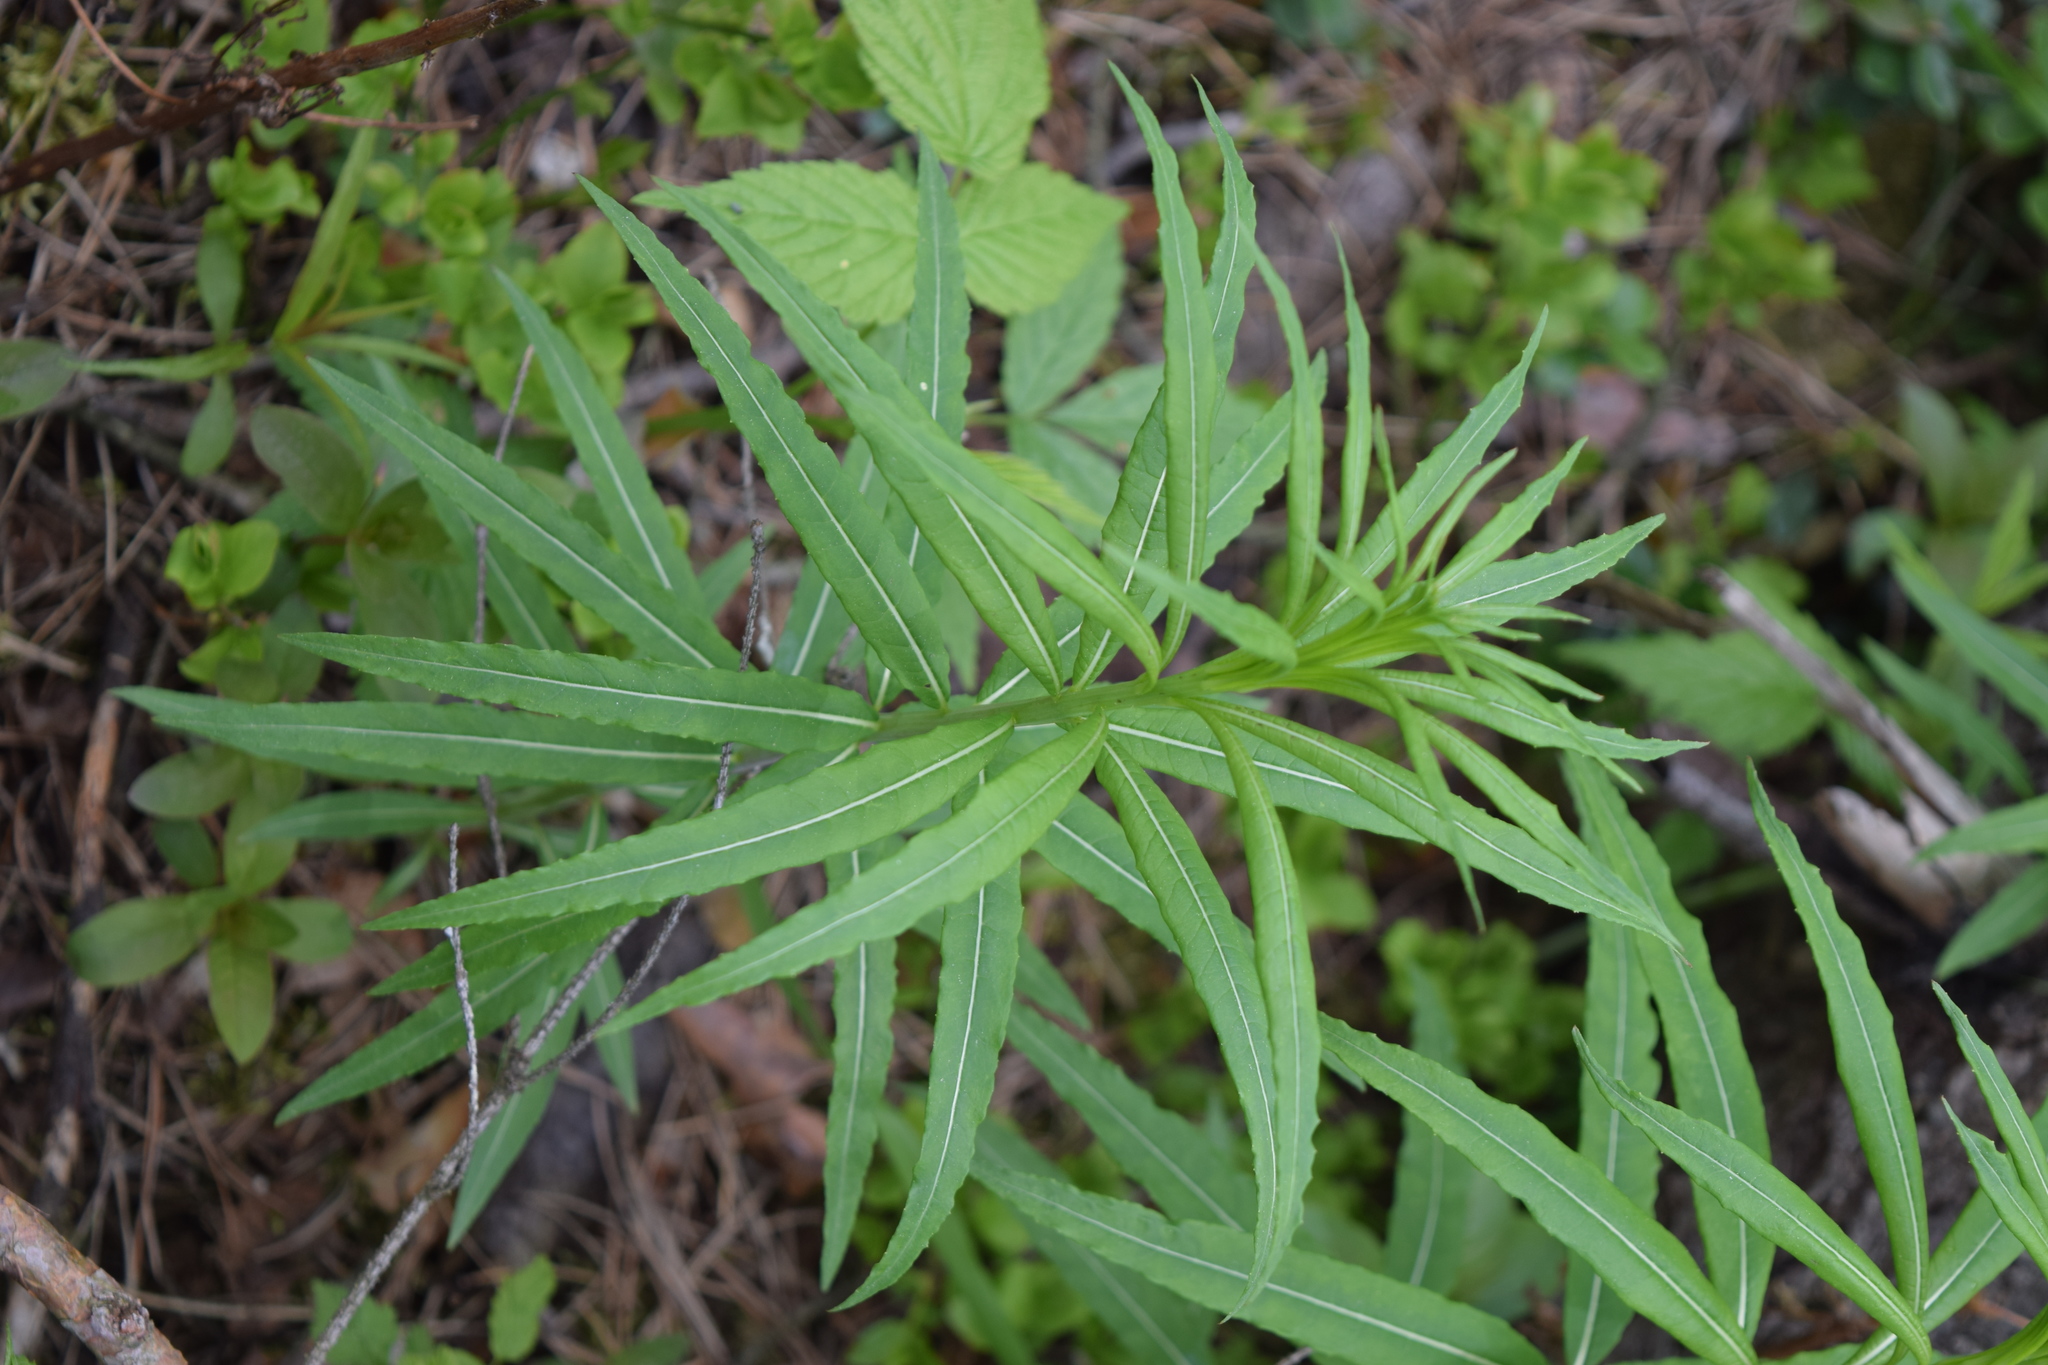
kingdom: Plantae
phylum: Tracheophyta
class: Magnoliopsida
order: Myrtales
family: Onagraceae
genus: Chamaenerion
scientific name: Chamaenerion angustifolium
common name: Fireweed
